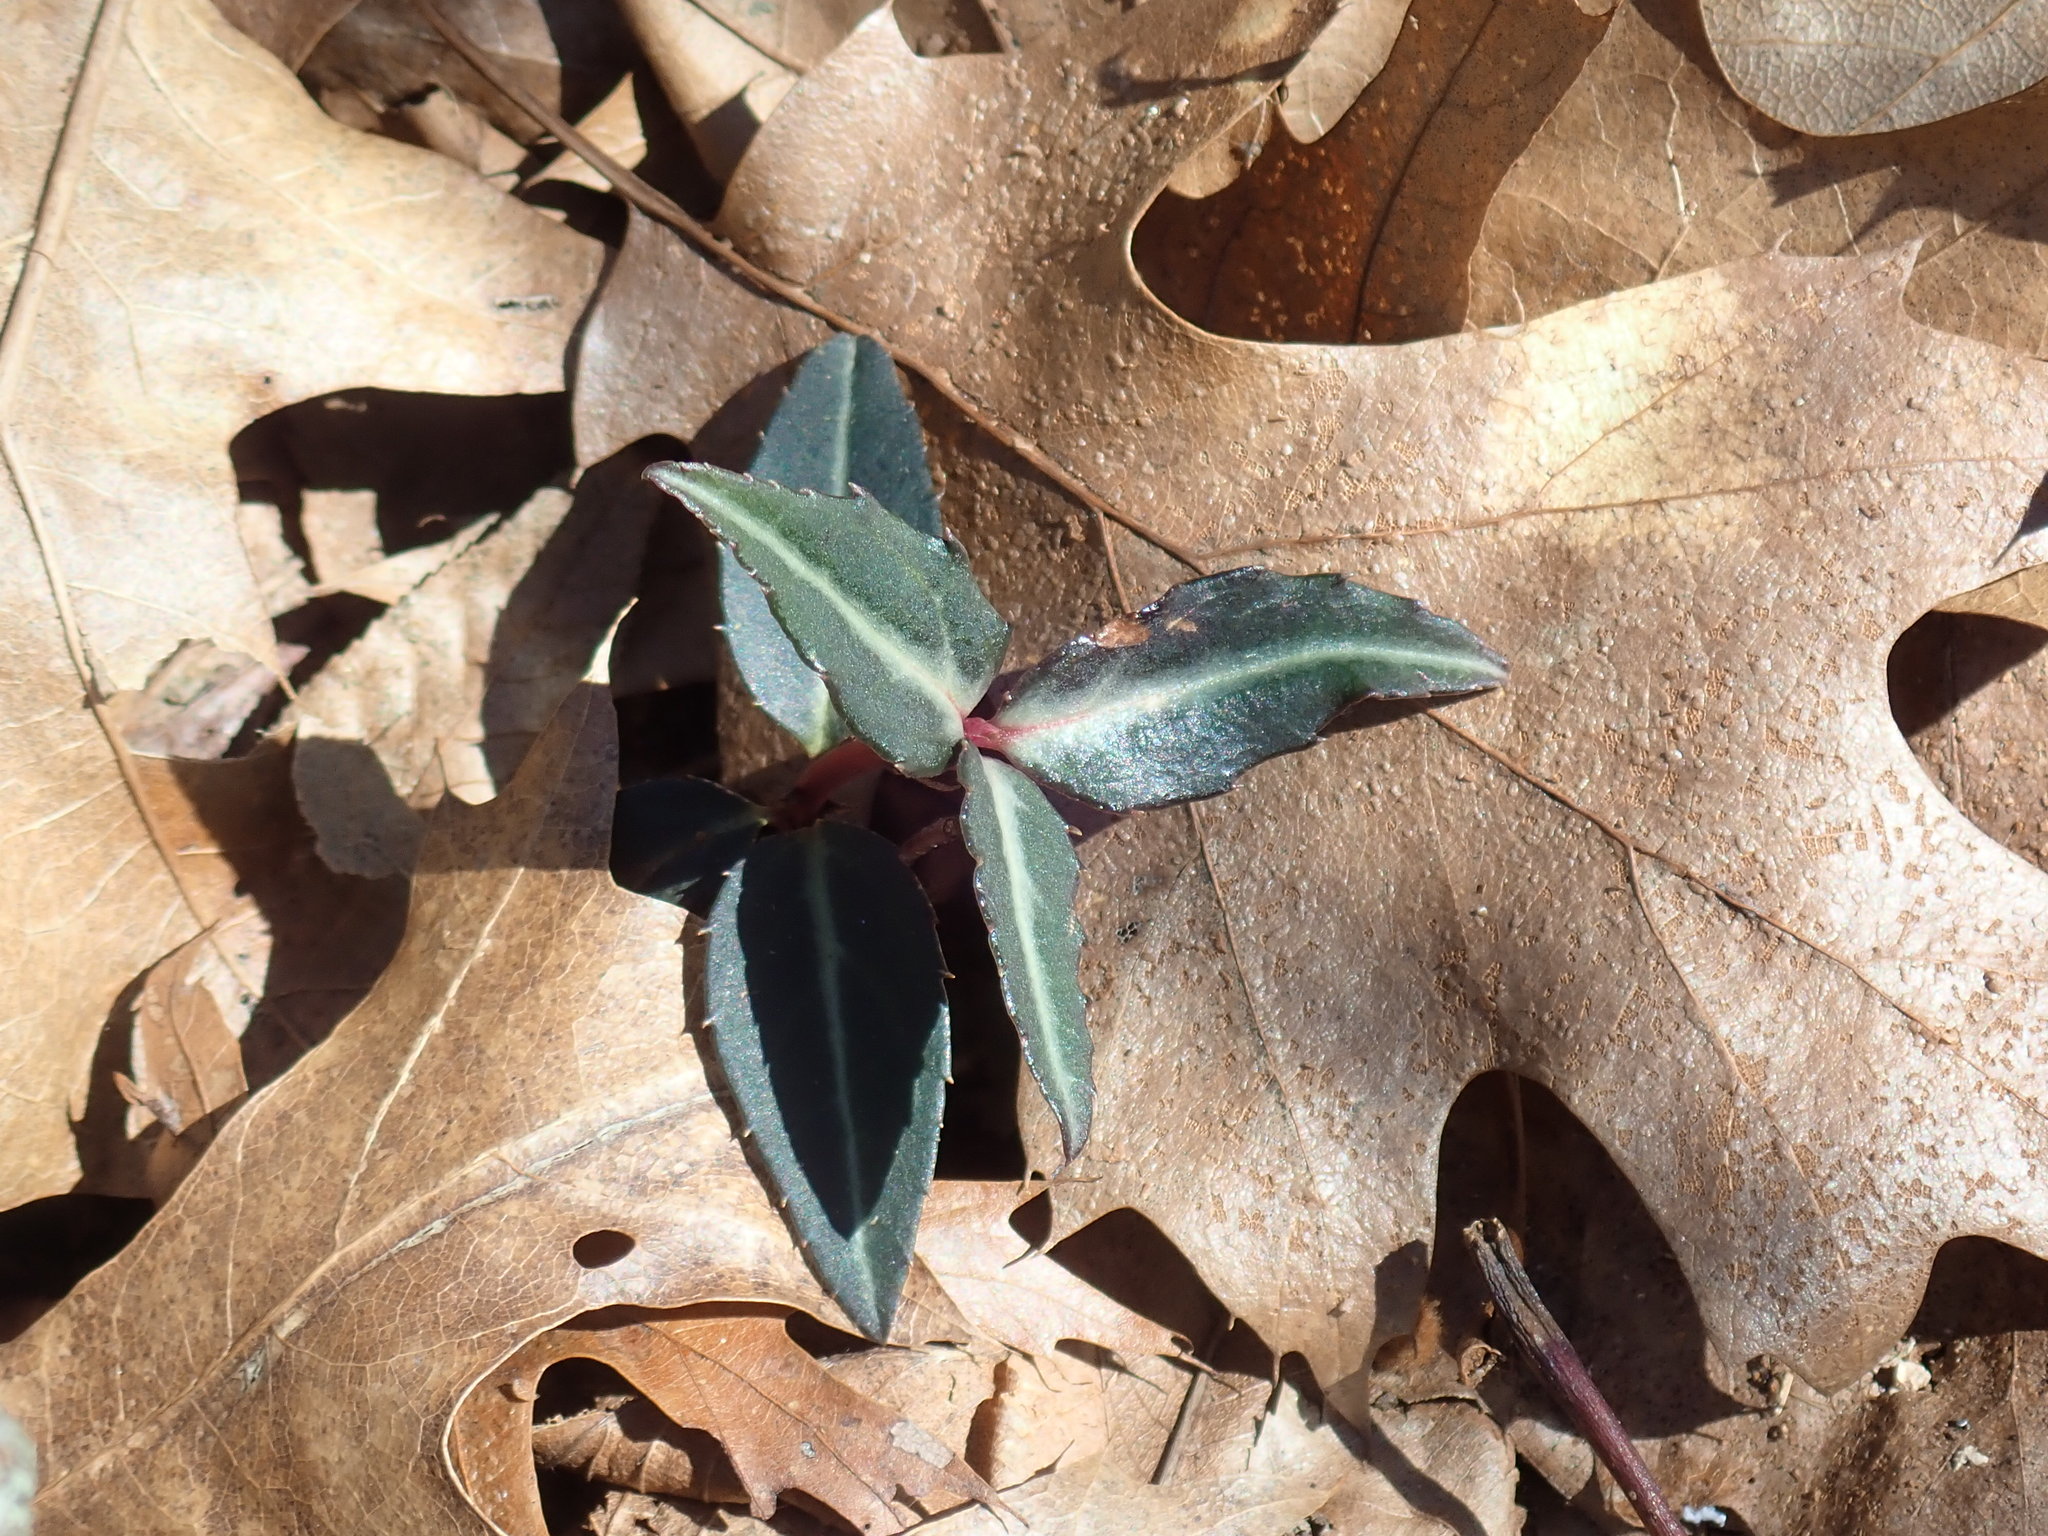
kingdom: Plantae
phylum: Tracheophyta
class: Magnoliopsida
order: Ericales
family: Ericaceae
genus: Chimaphila
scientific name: Chimaphila maculata
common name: Spotted pipsissewa
